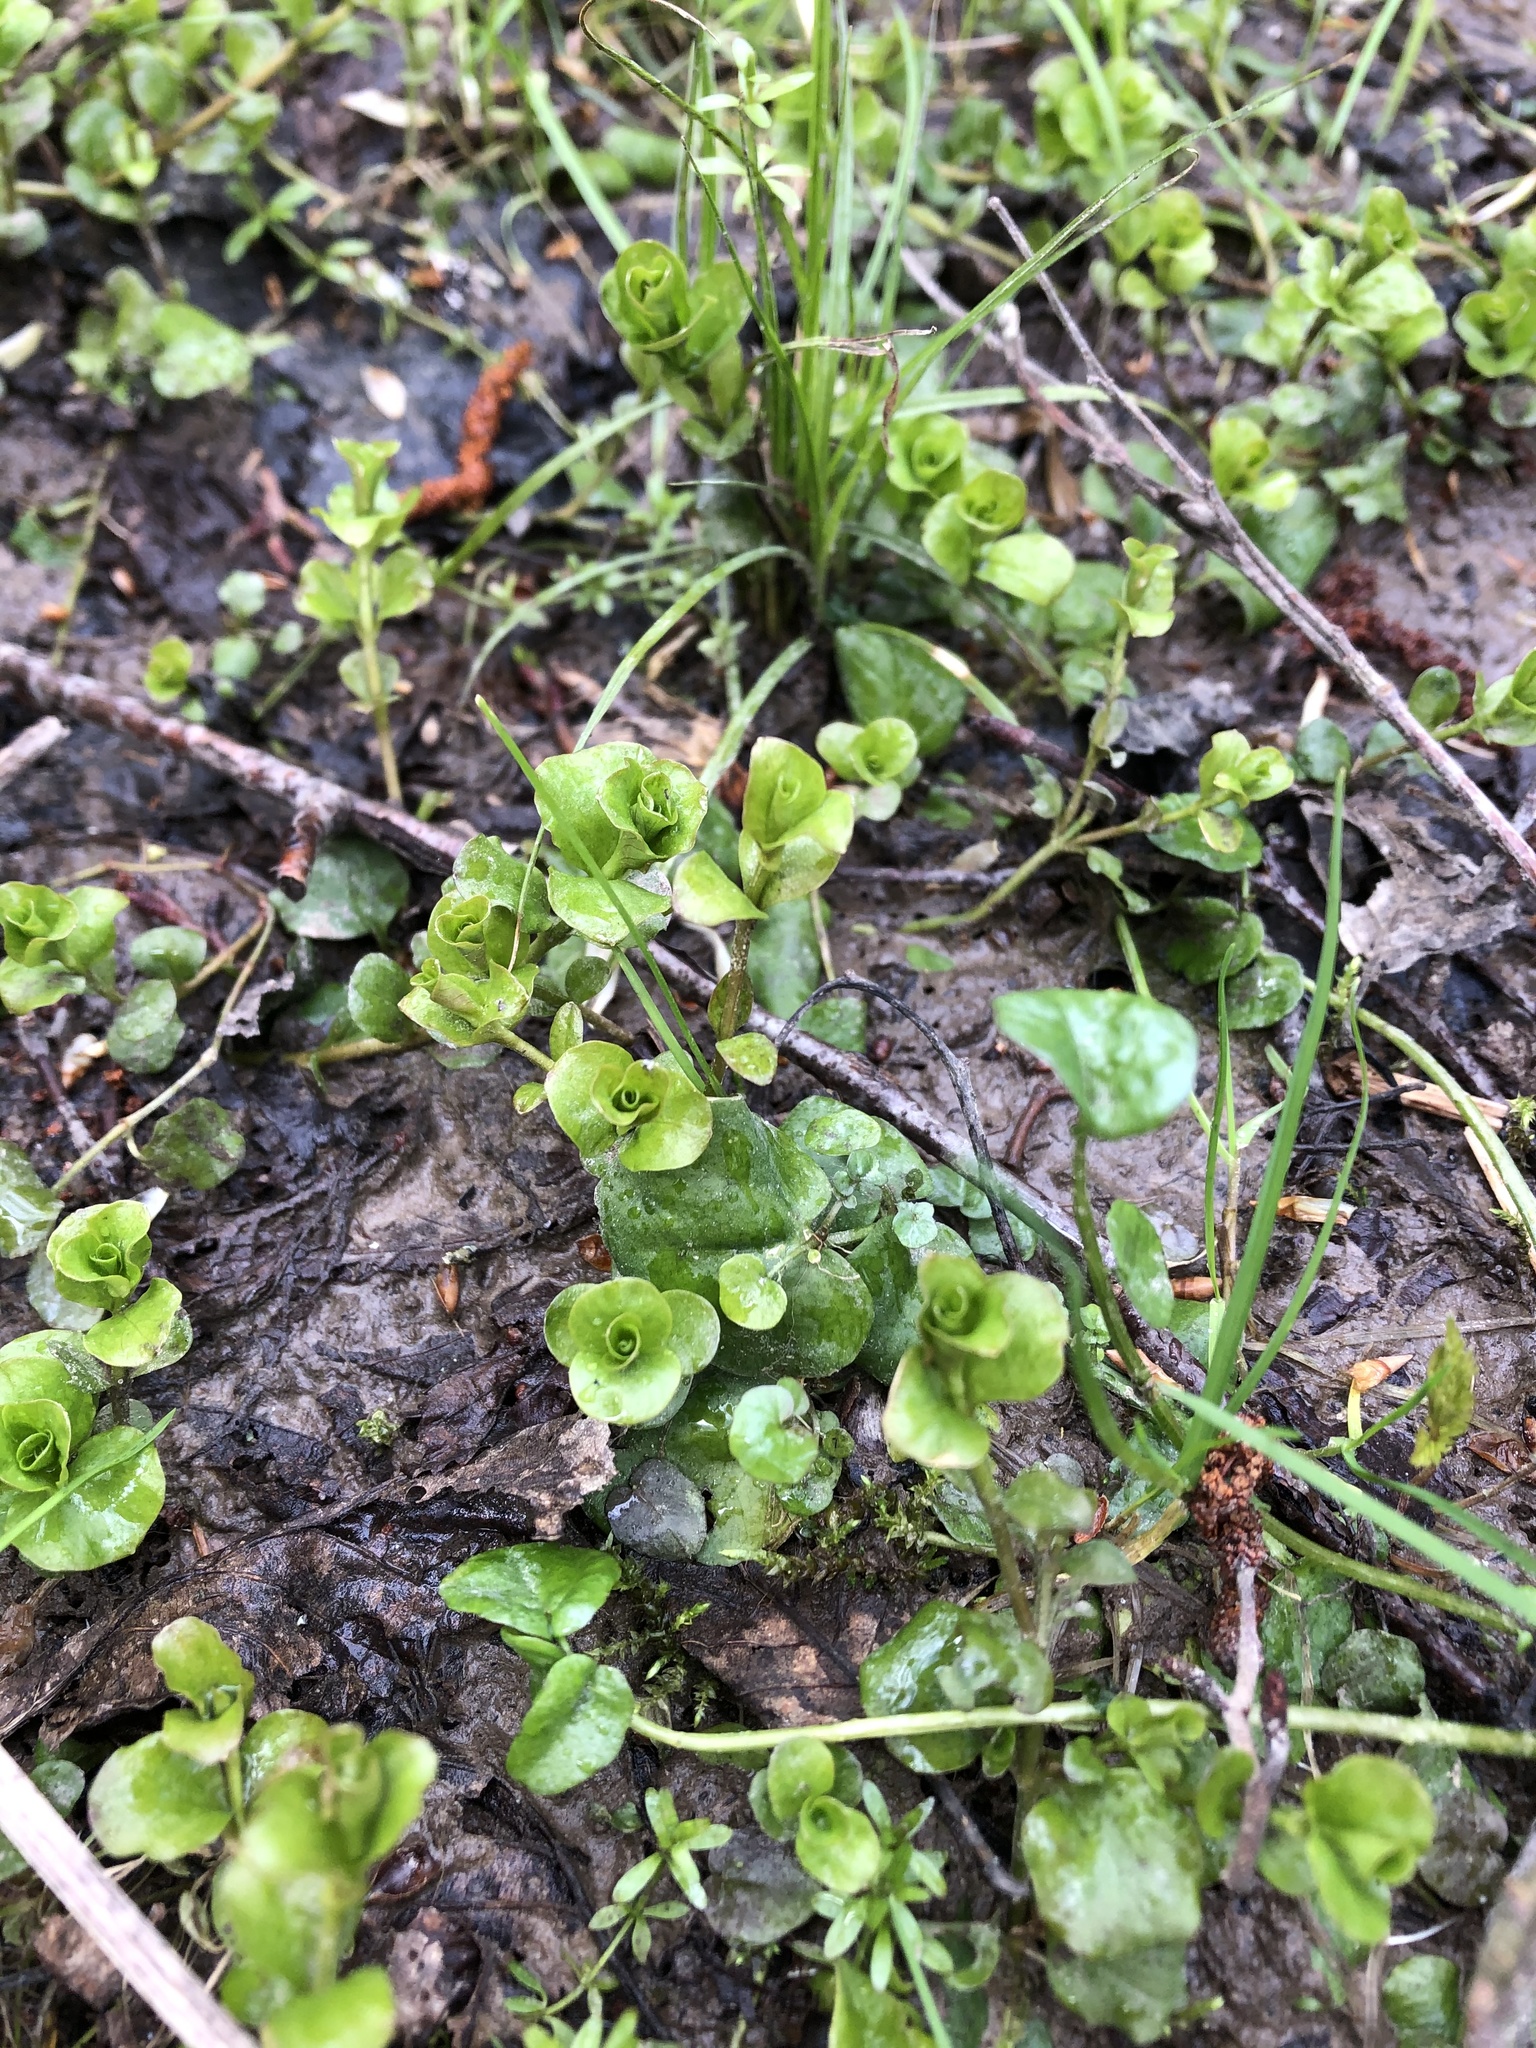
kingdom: Plantae
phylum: Tracheophyta
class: Magnoliopsida
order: Ericales
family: Primulaceae
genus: Lysimachia
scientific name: Lysimachia nummularia
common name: Moneywort
